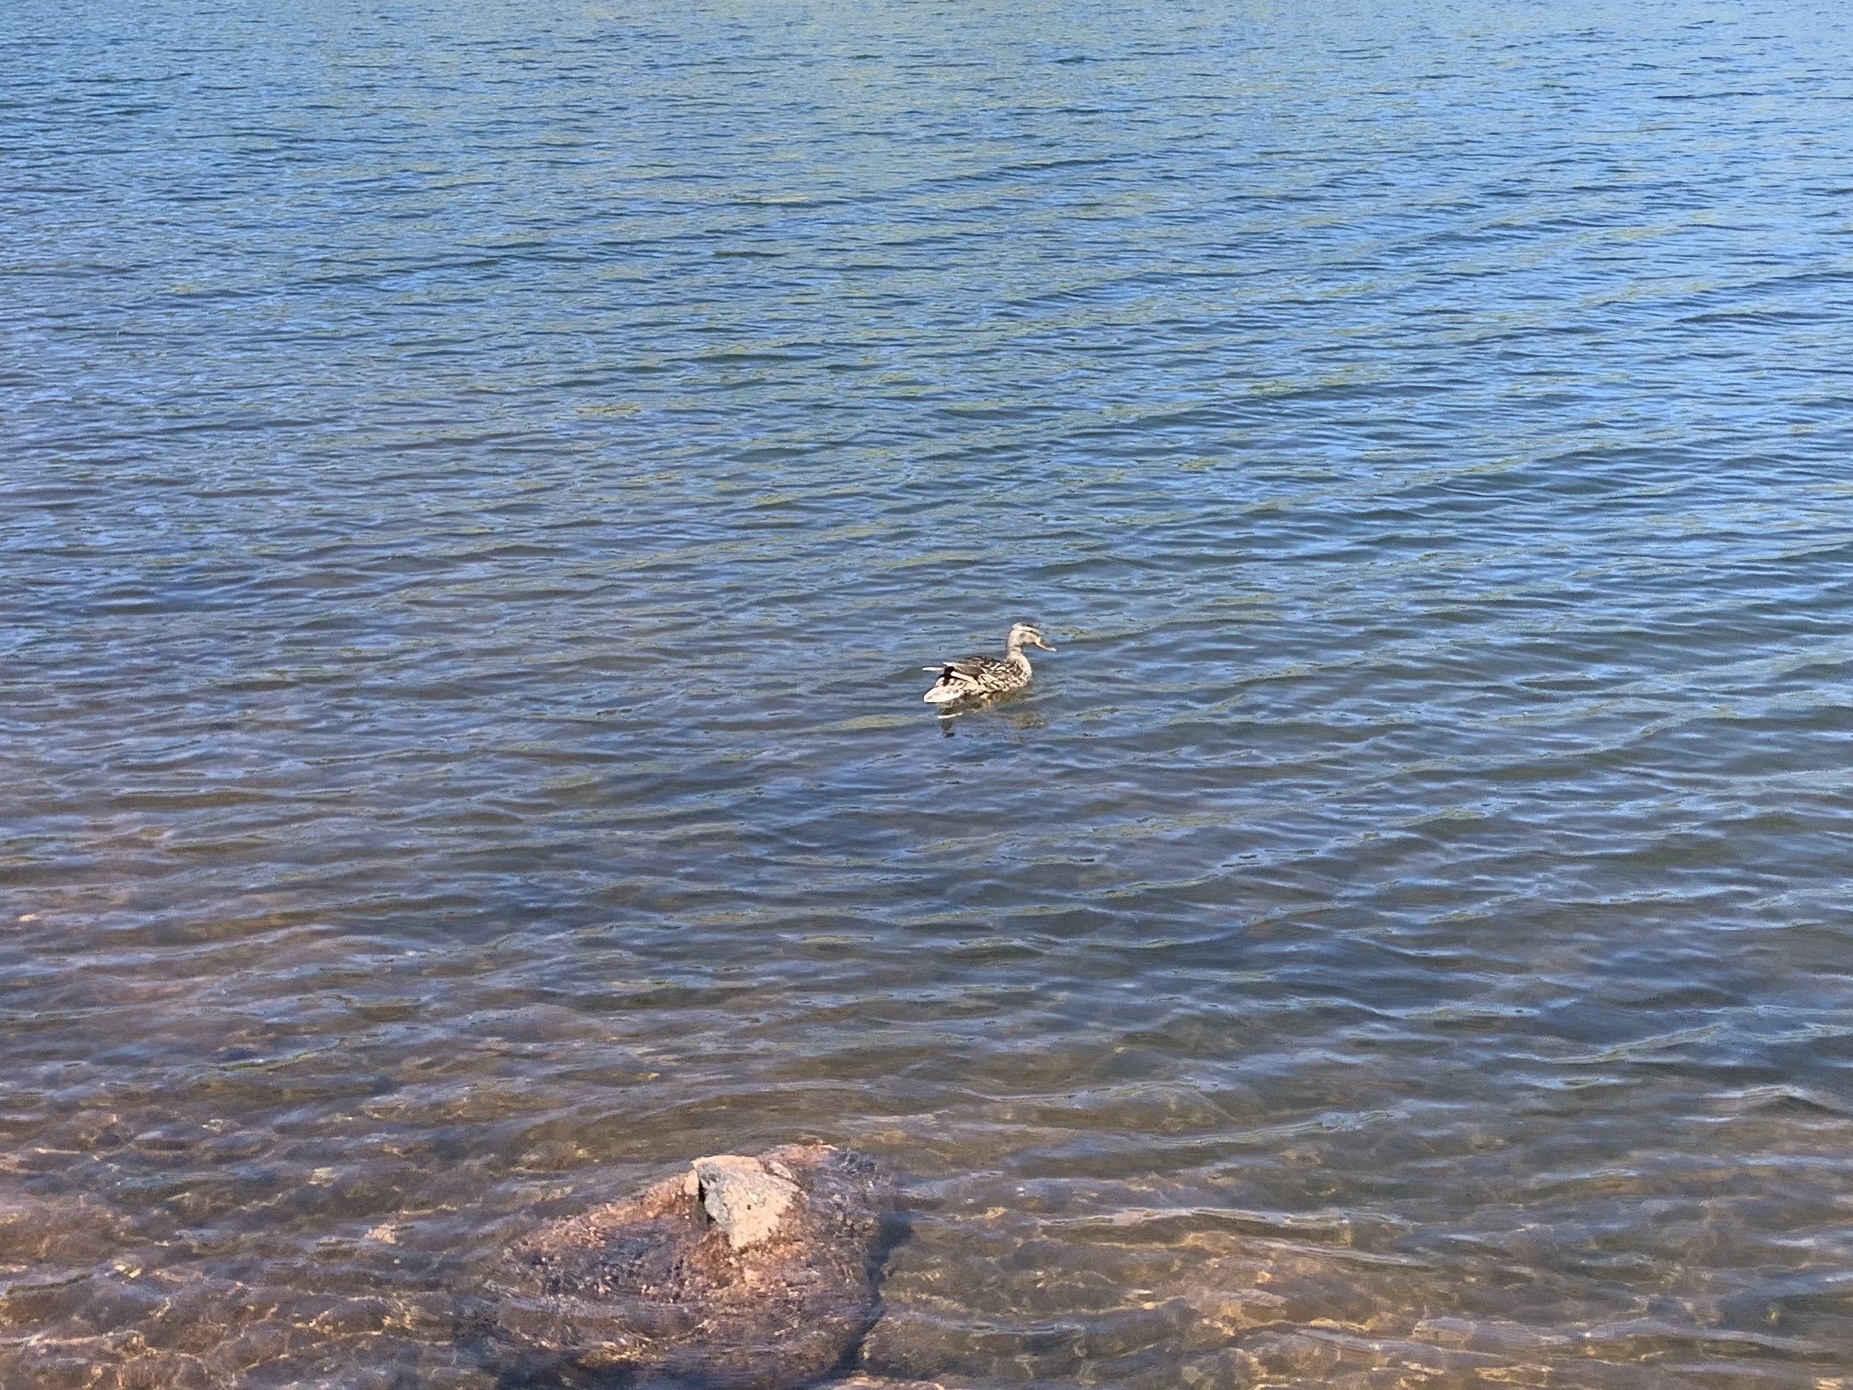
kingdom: Animalia
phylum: Chordata
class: Aves
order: Anseriformes
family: Anatidae
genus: Anas
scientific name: Anas platyrhynchos
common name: Mallard
